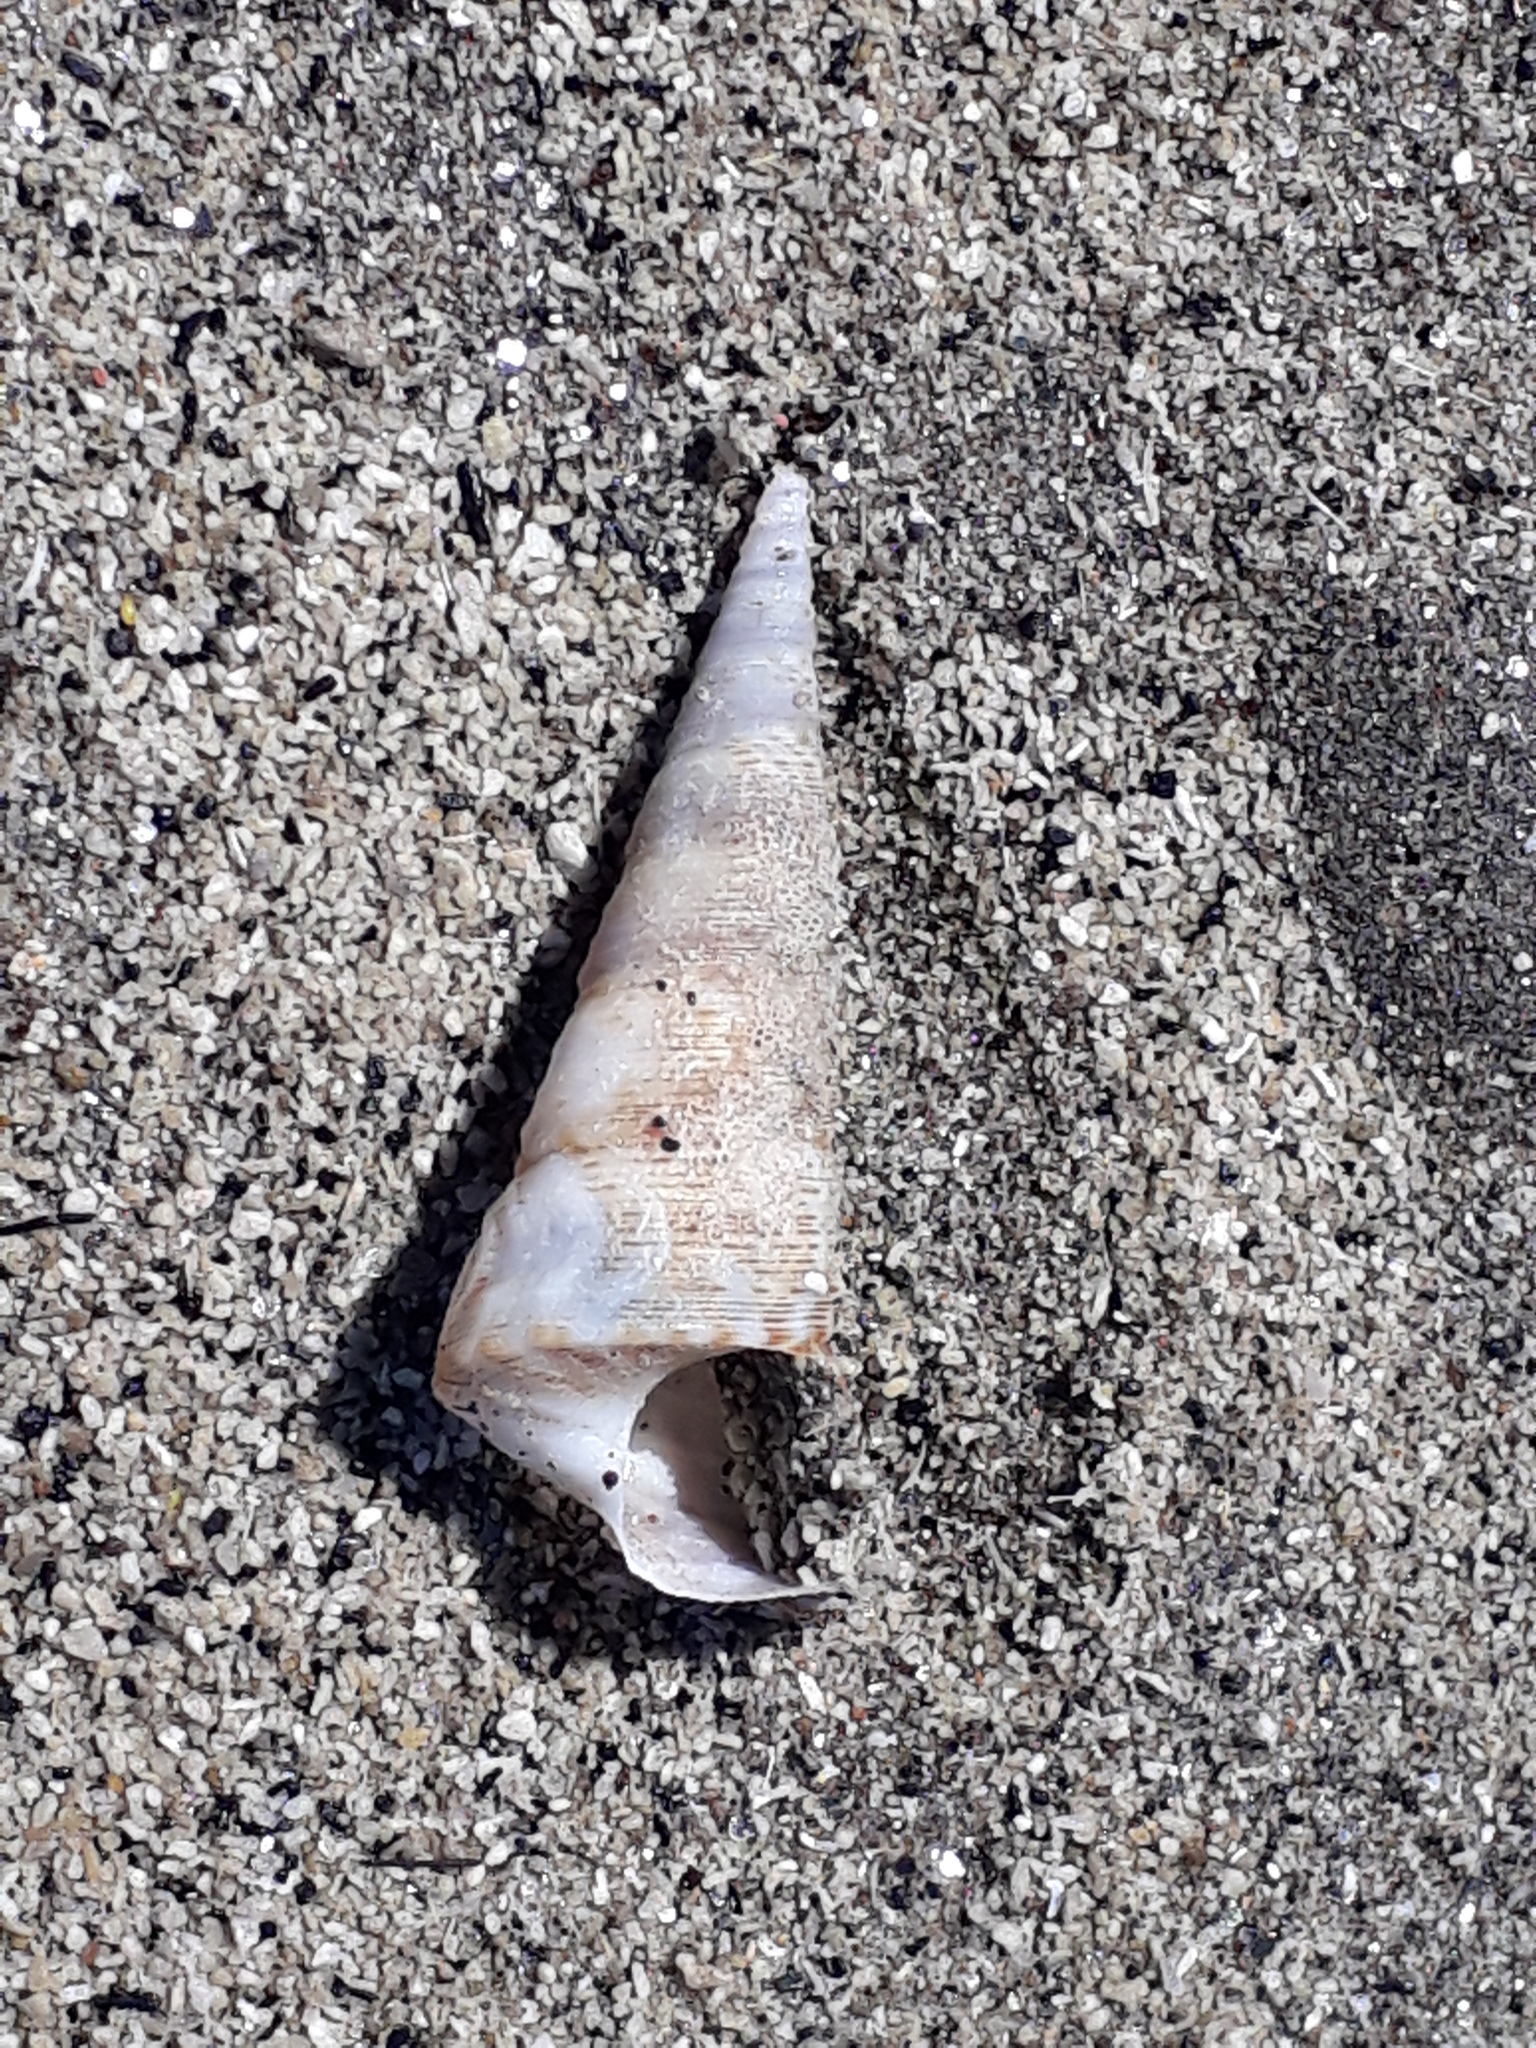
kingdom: Animalia
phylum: Mollusca
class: Gastropoda
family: Turritellidae
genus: Maoricolpus
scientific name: Maoricolpus roseus
